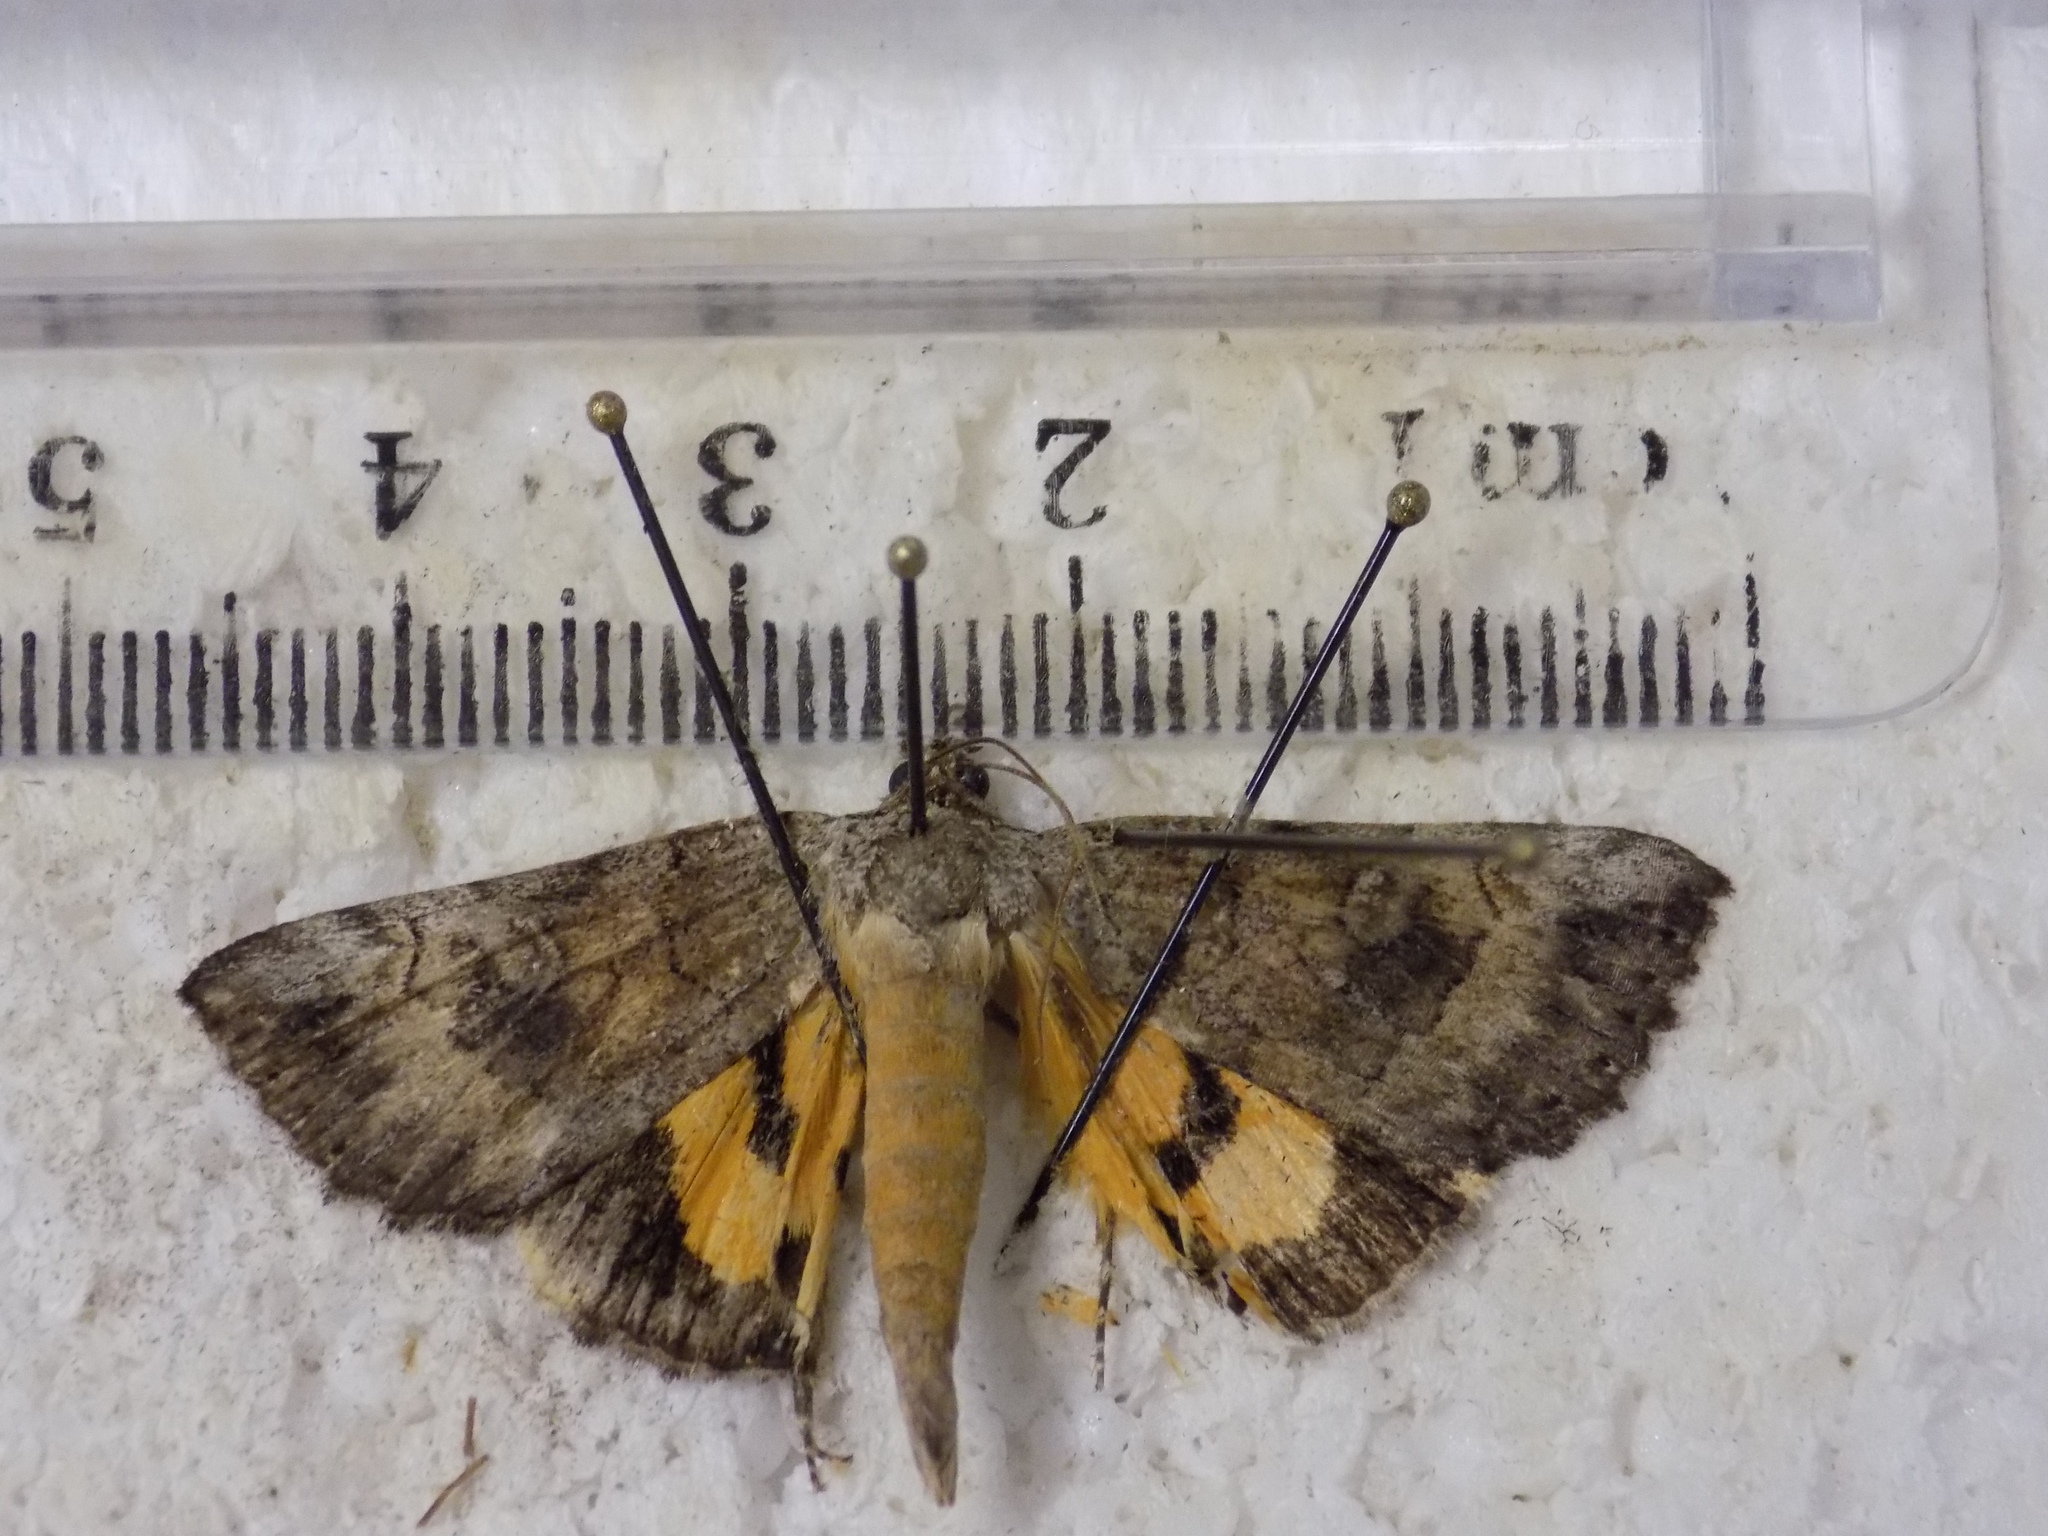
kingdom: Animalia
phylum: Arthropoda
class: Insecta
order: Lepidoptera
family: Erebidae
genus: Catocala
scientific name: Catocala similis
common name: Similar underwing
